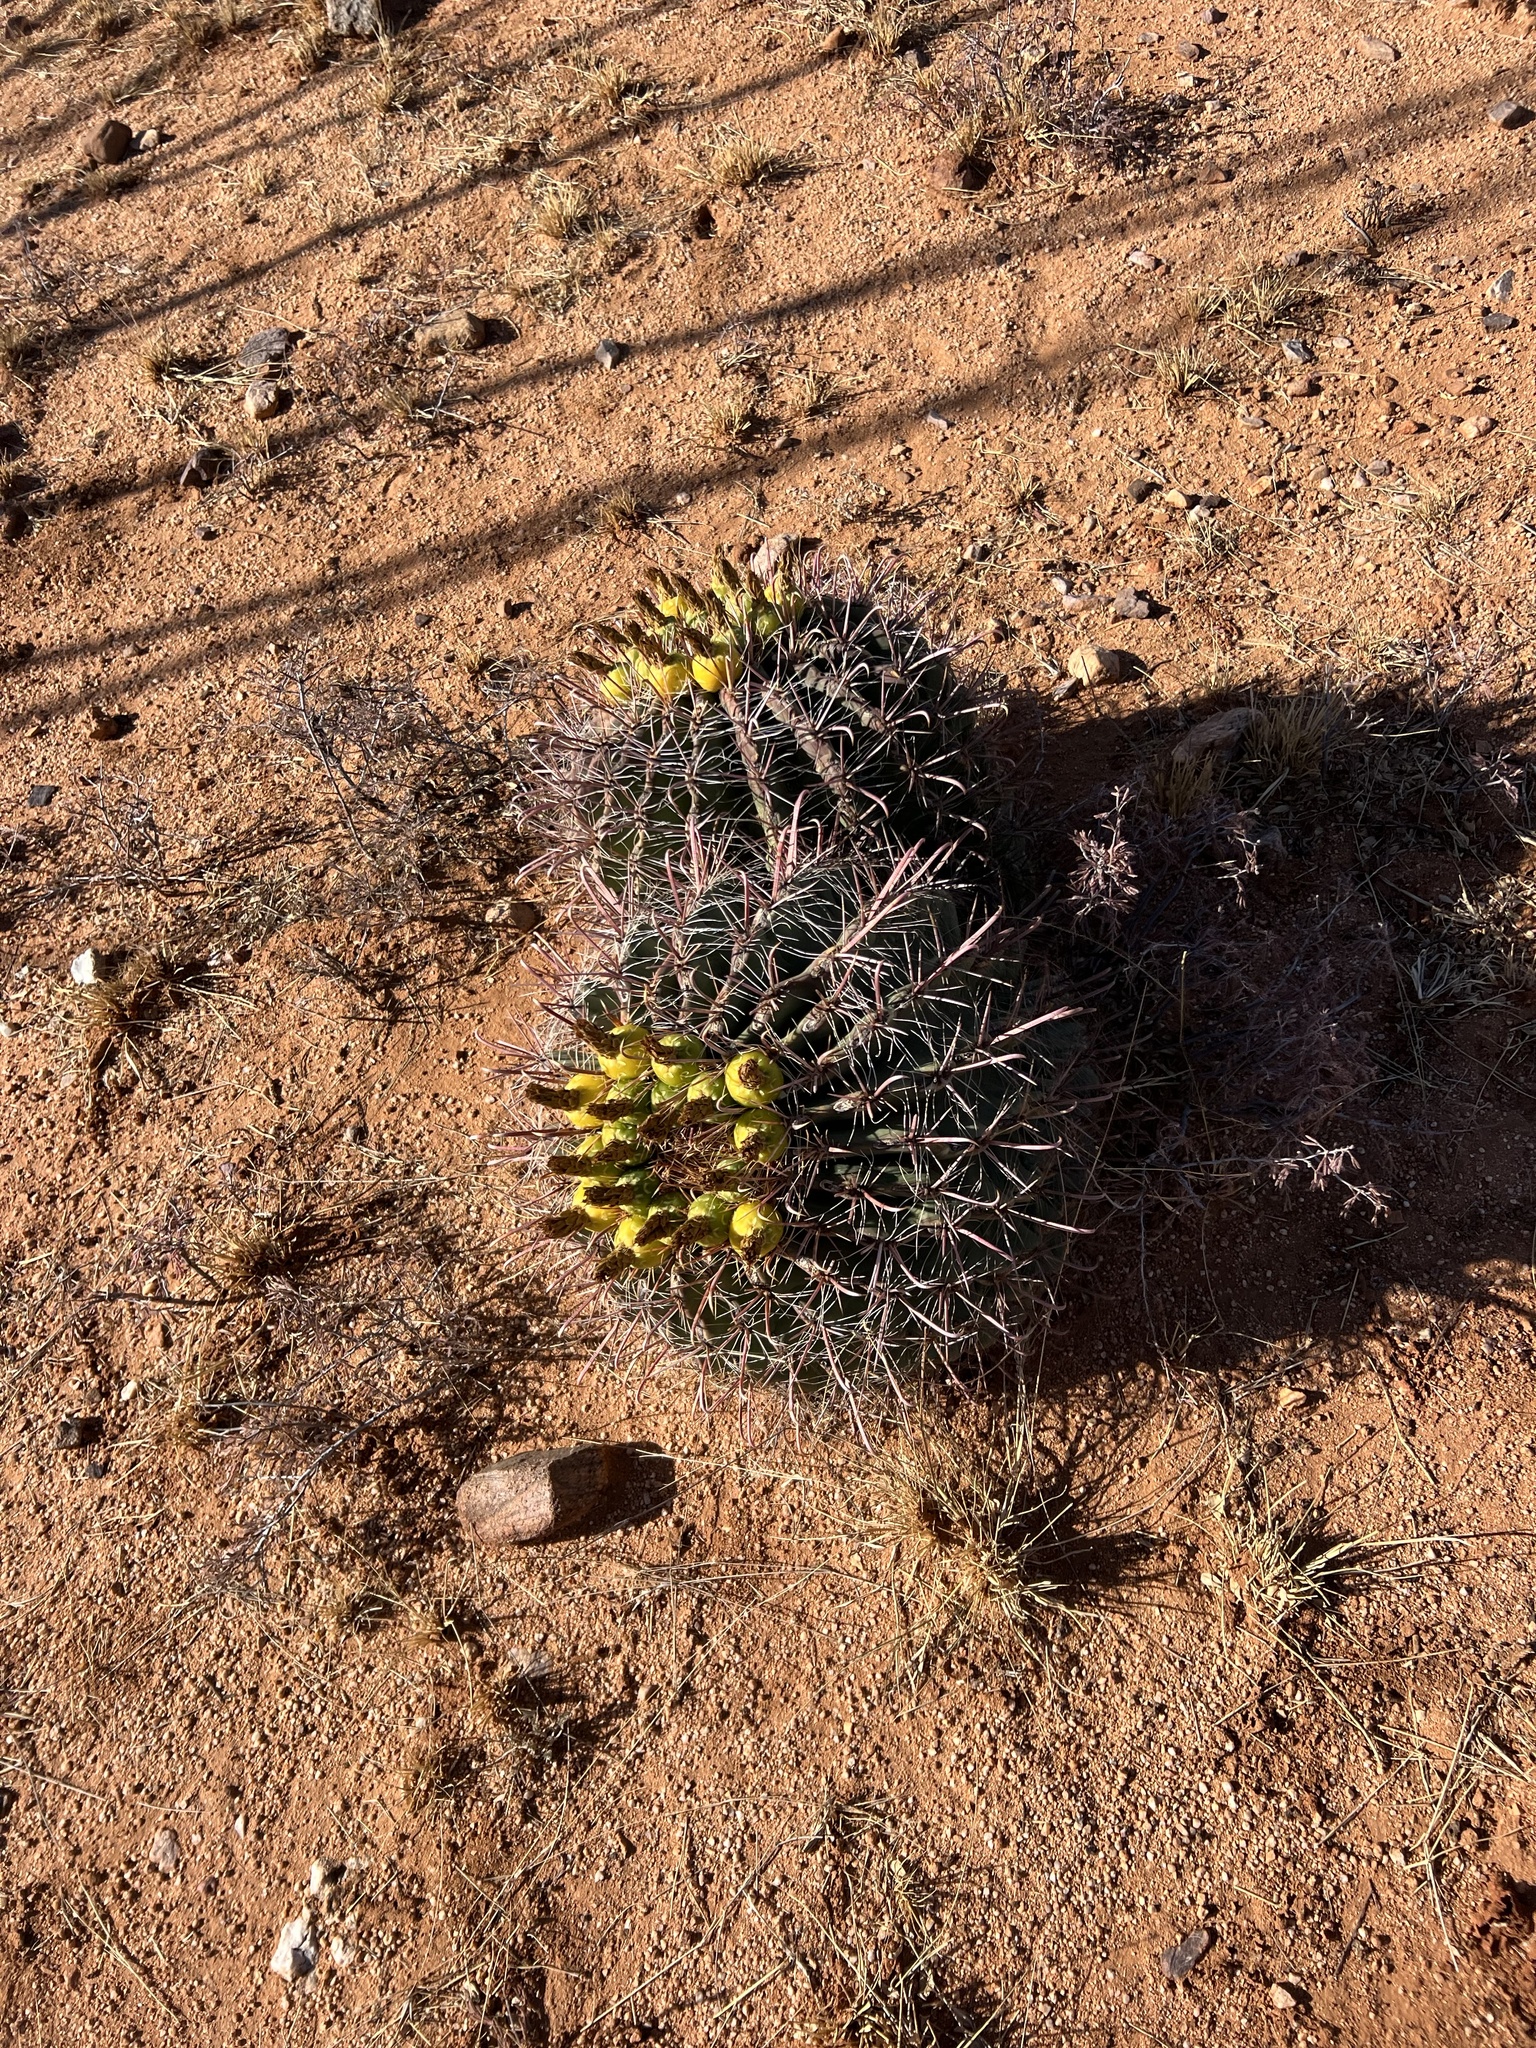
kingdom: Plantae
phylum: Tracheophyta
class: Magnoliopsida
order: Caryophyllales
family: Cactaceae
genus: Ferocactus
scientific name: Ferocactus wislizeni
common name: Candy barrel cactus
